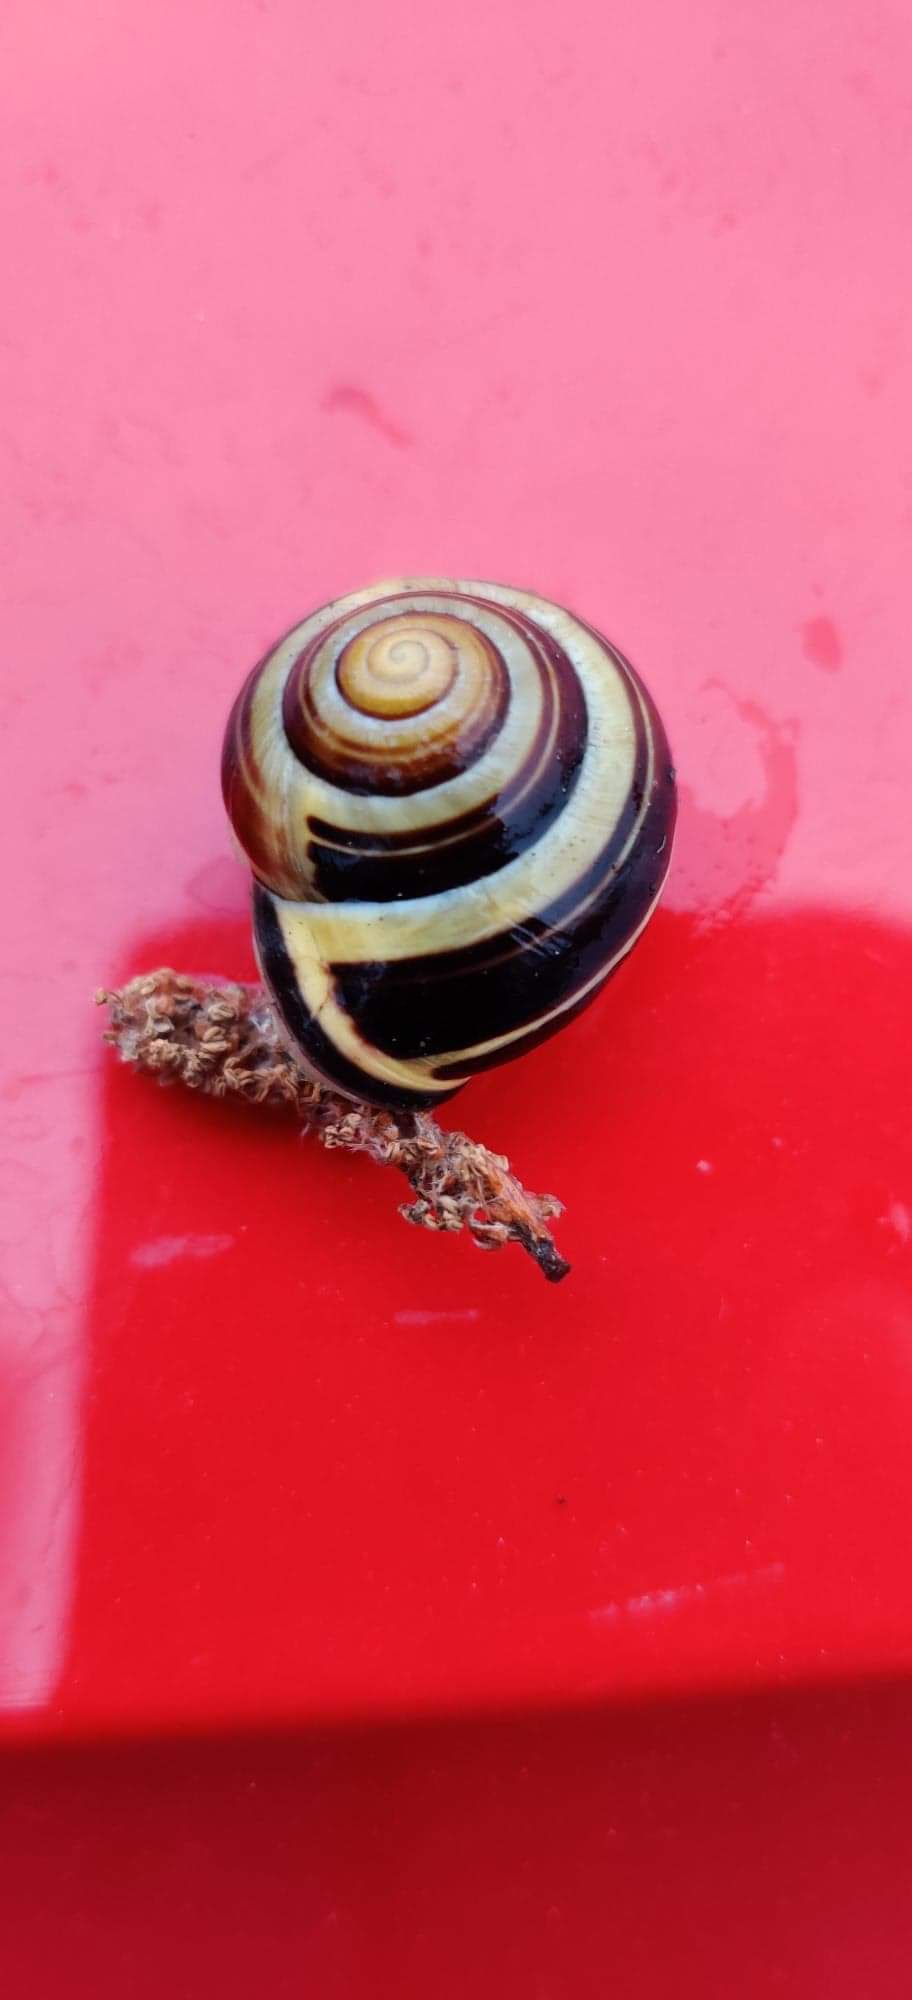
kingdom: Animalia
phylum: Mollusca
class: Gastropoda
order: Stylommatophora
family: Helicidae
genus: Cepaea
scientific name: Cepaea nemoralis
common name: Grovesnail
